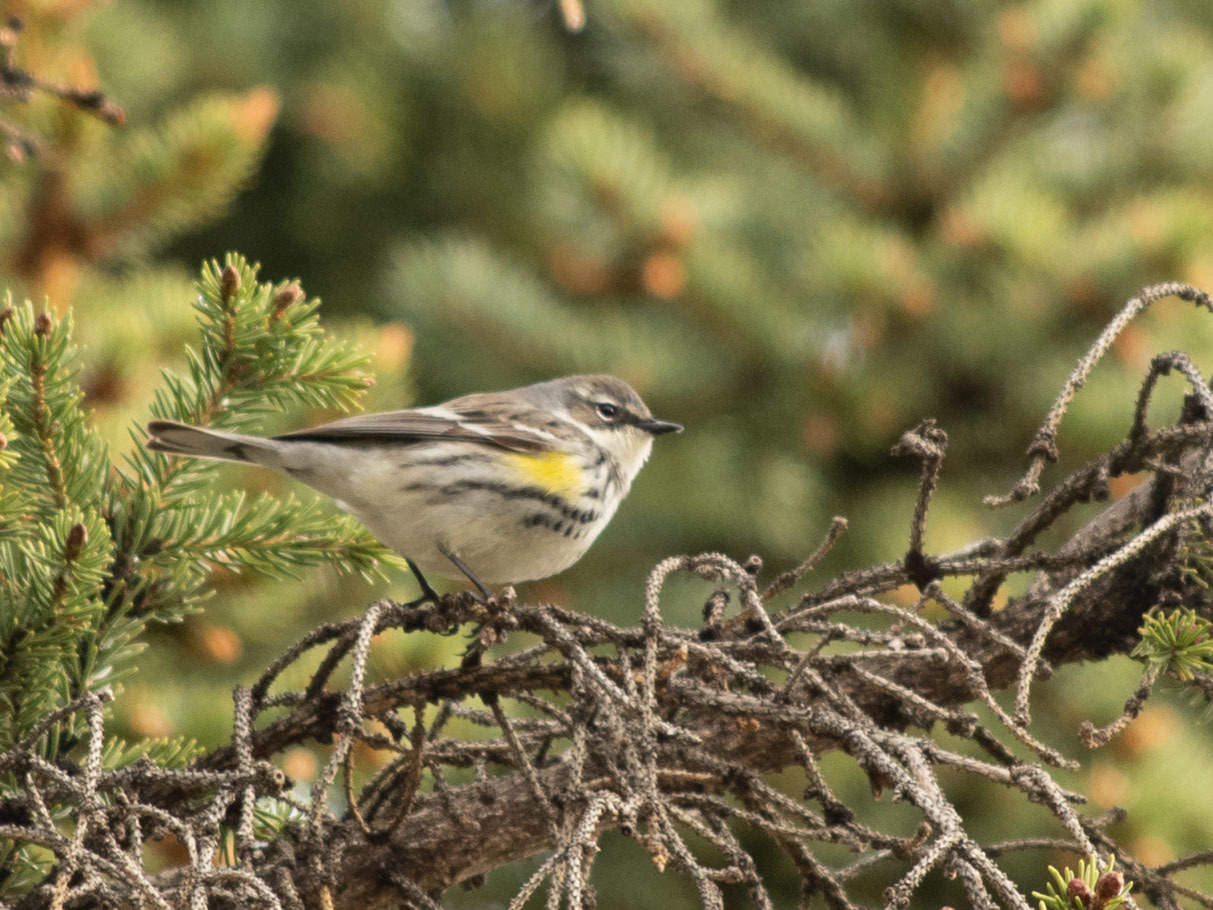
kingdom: Animalia
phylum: Chordata
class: Aves
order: Passeriformes
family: Parulidae
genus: Setophaga
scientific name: Setophaga coronata
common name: Myrtle warbler
